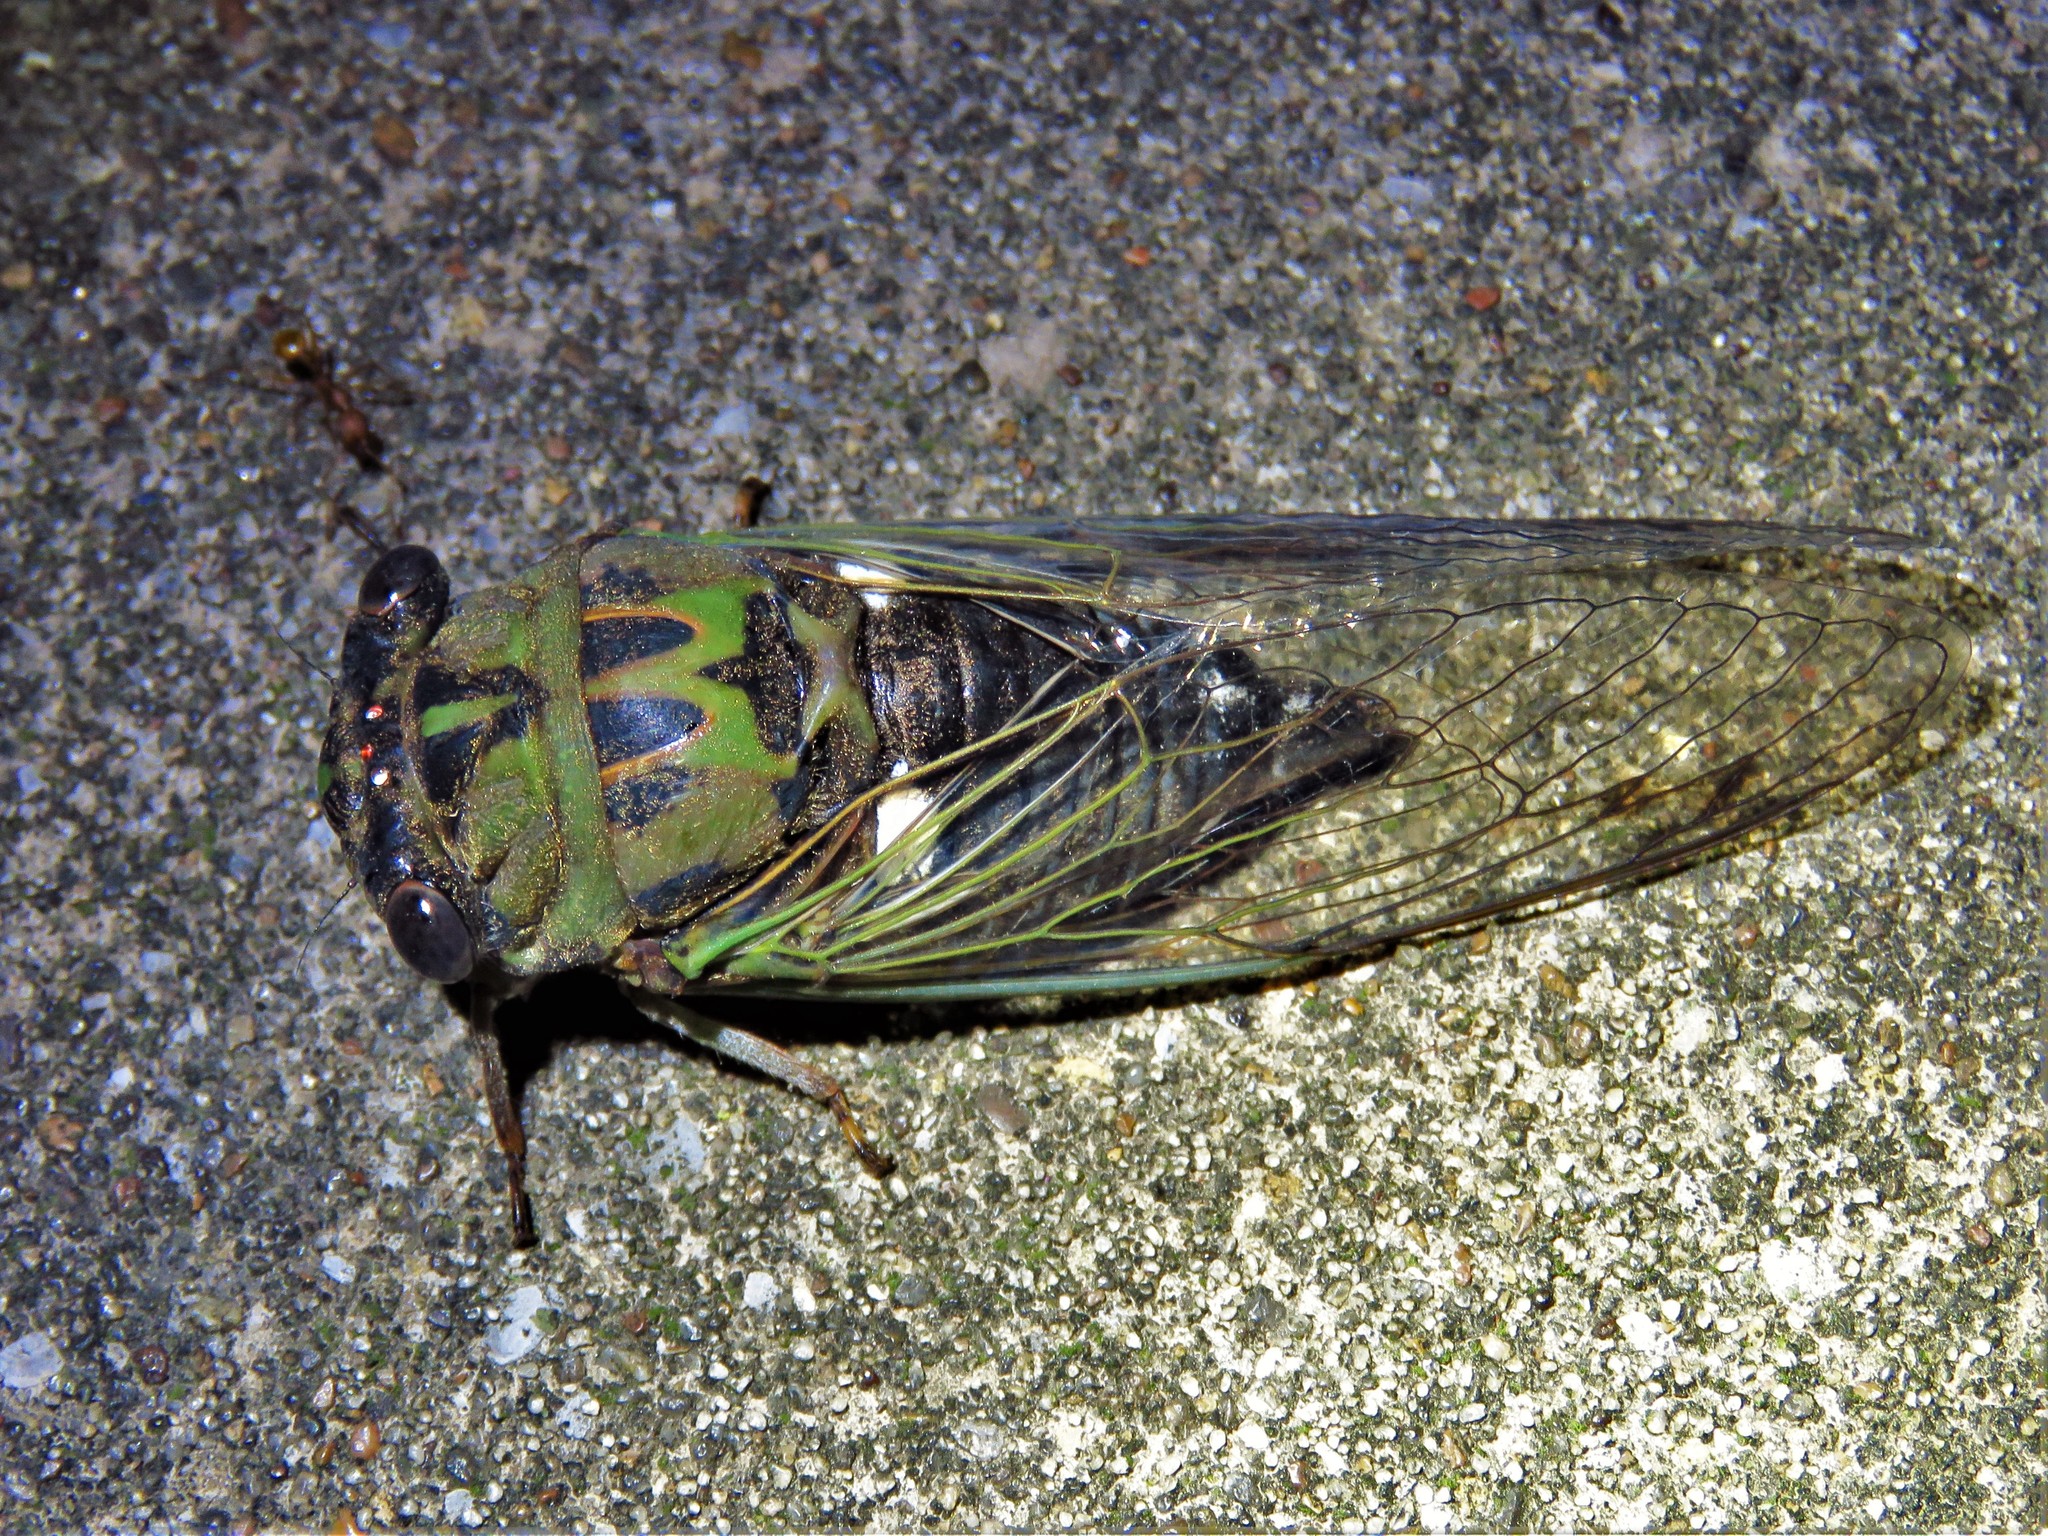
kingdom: Animalia
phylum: Arthropoda
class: Insecta
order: Hemiptera
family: Cicadidae
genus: Neotibicen
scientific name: Neotibicen pruinosus
